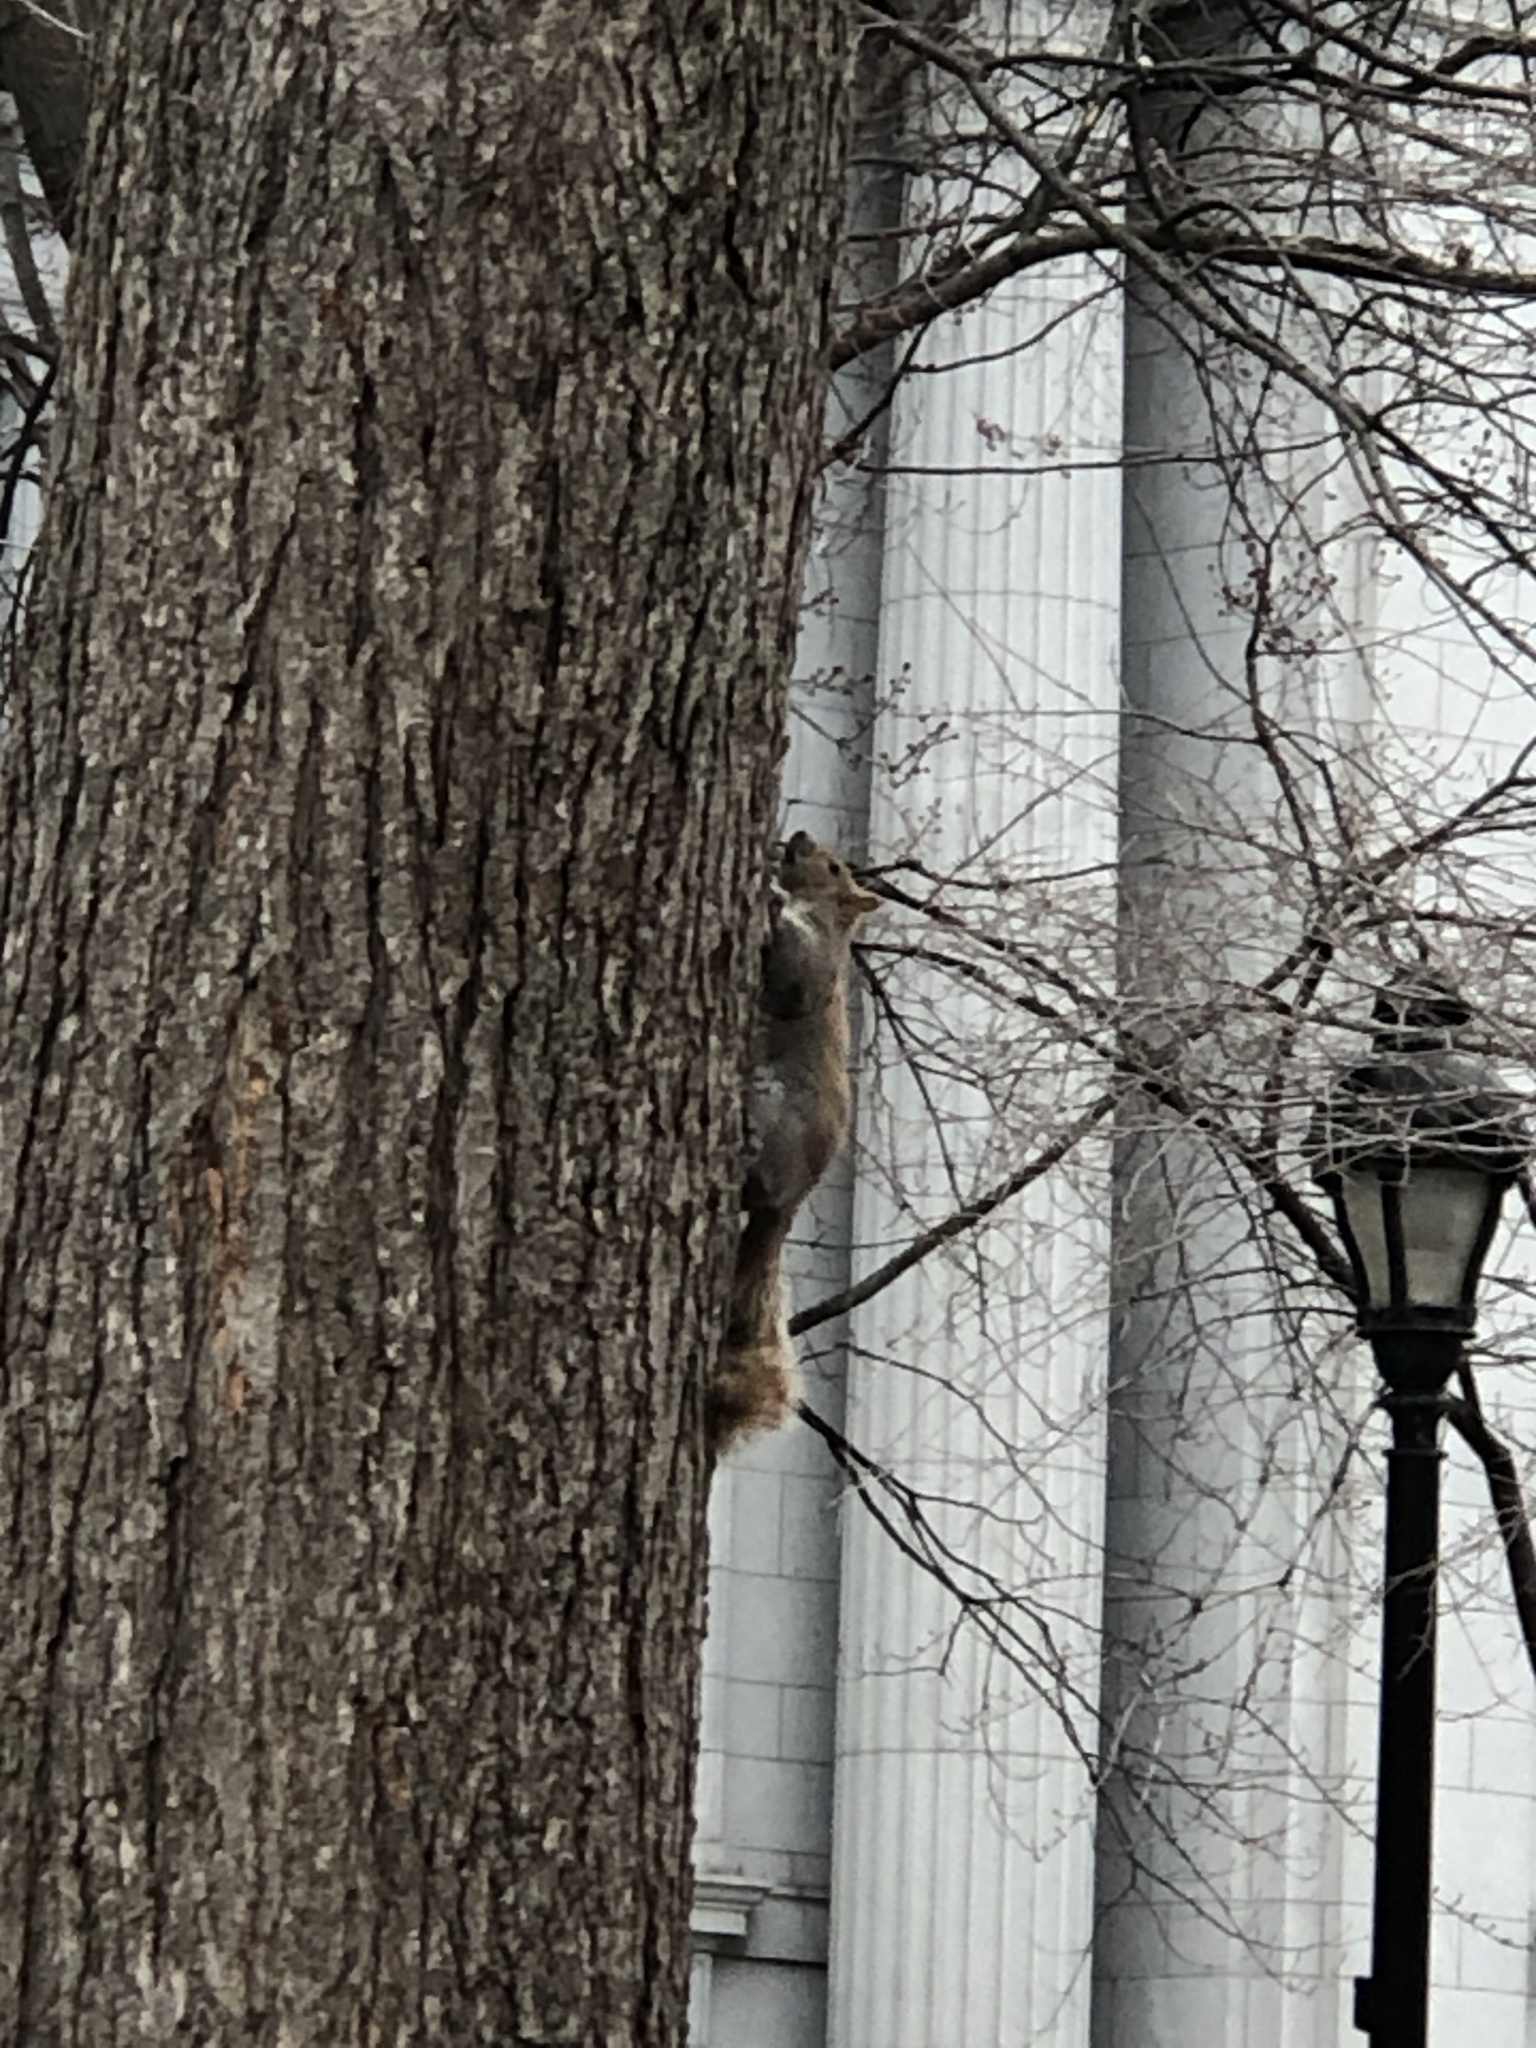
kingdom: Animalia
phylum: Chordata
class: Mammalia
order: Rodentia
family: Sciuridae
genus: Sciurus
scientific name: Sciurus carolinensis
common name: Eastern gray squirrel
